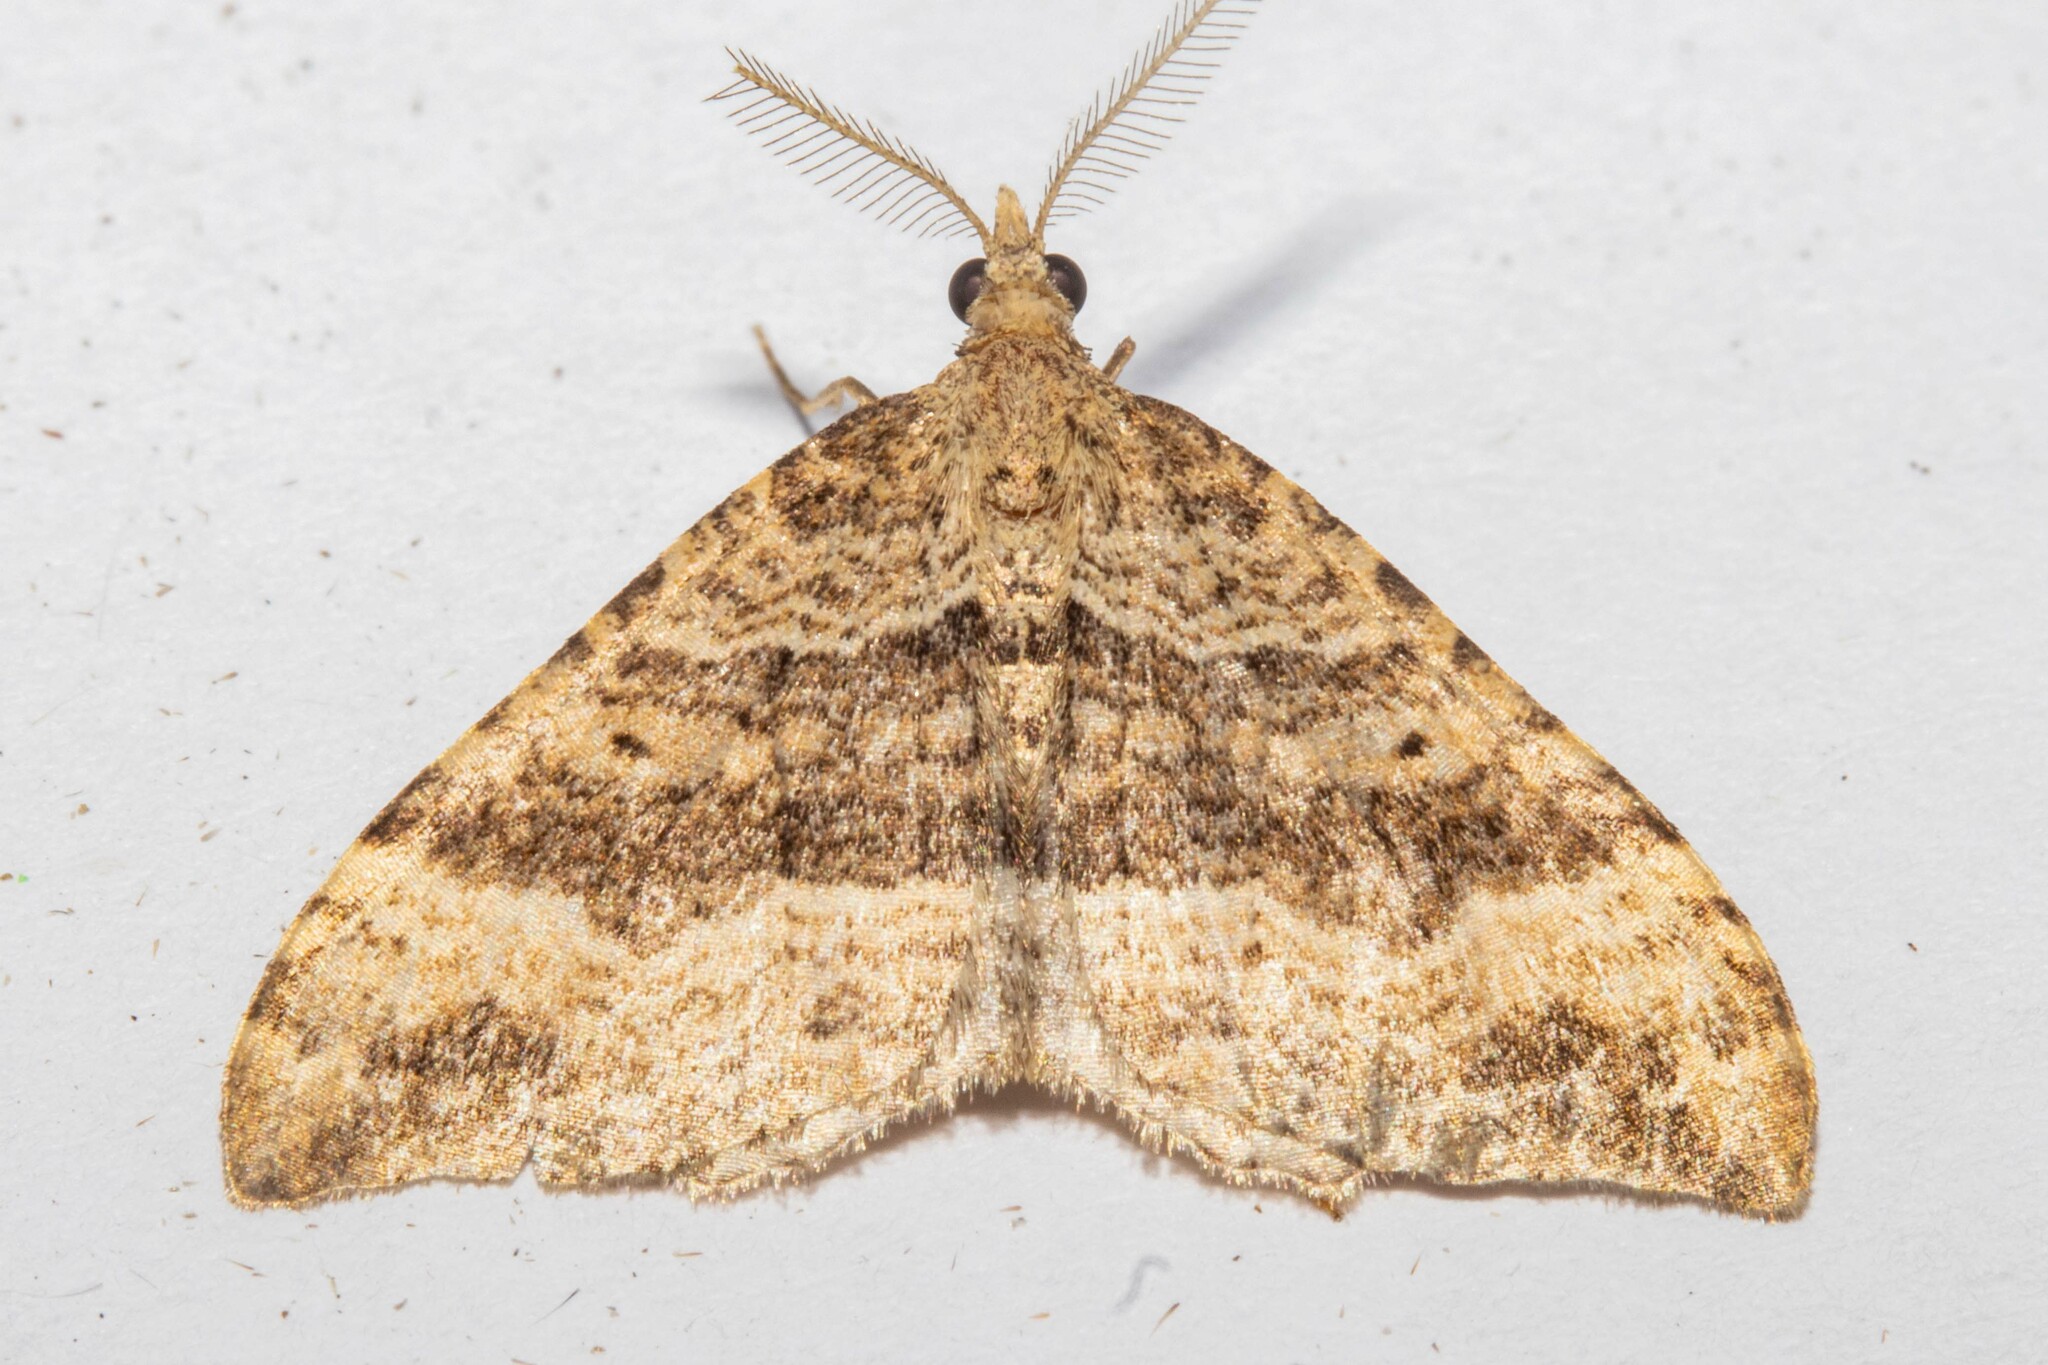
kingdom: Animalia
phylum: Arthropoda
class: Insecta
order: Lepidoptera
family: Geometridae
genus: Homodotis
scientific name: Homodotis megaspilata
